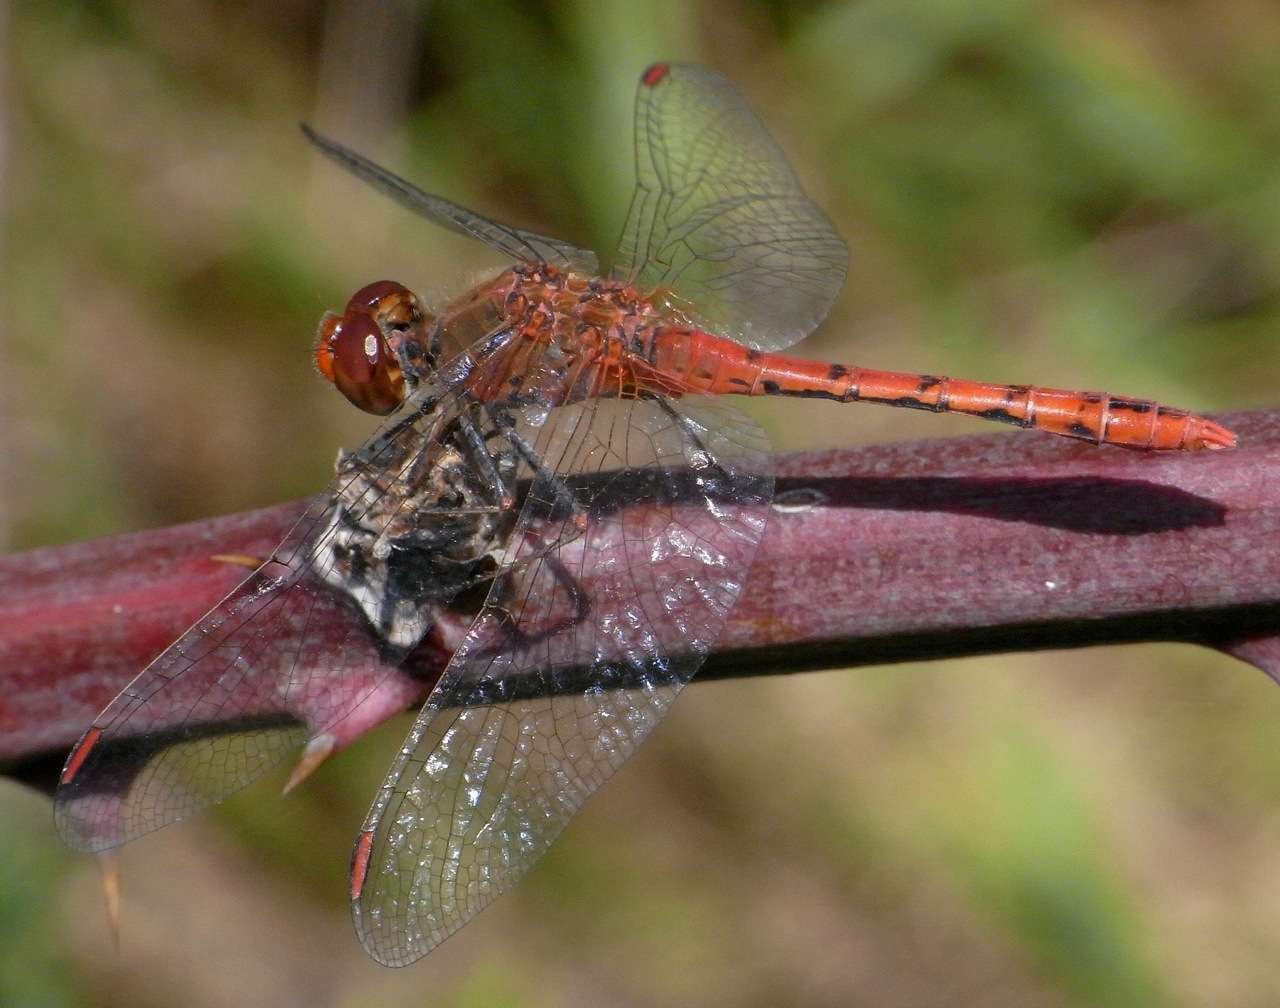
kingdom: Animalia
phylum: Arthropoda
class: Insecta
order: Odonata
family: Libellulidae
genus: Diplacodes
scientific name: Diplacodes bipunctata
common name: Red percher dragonfly
